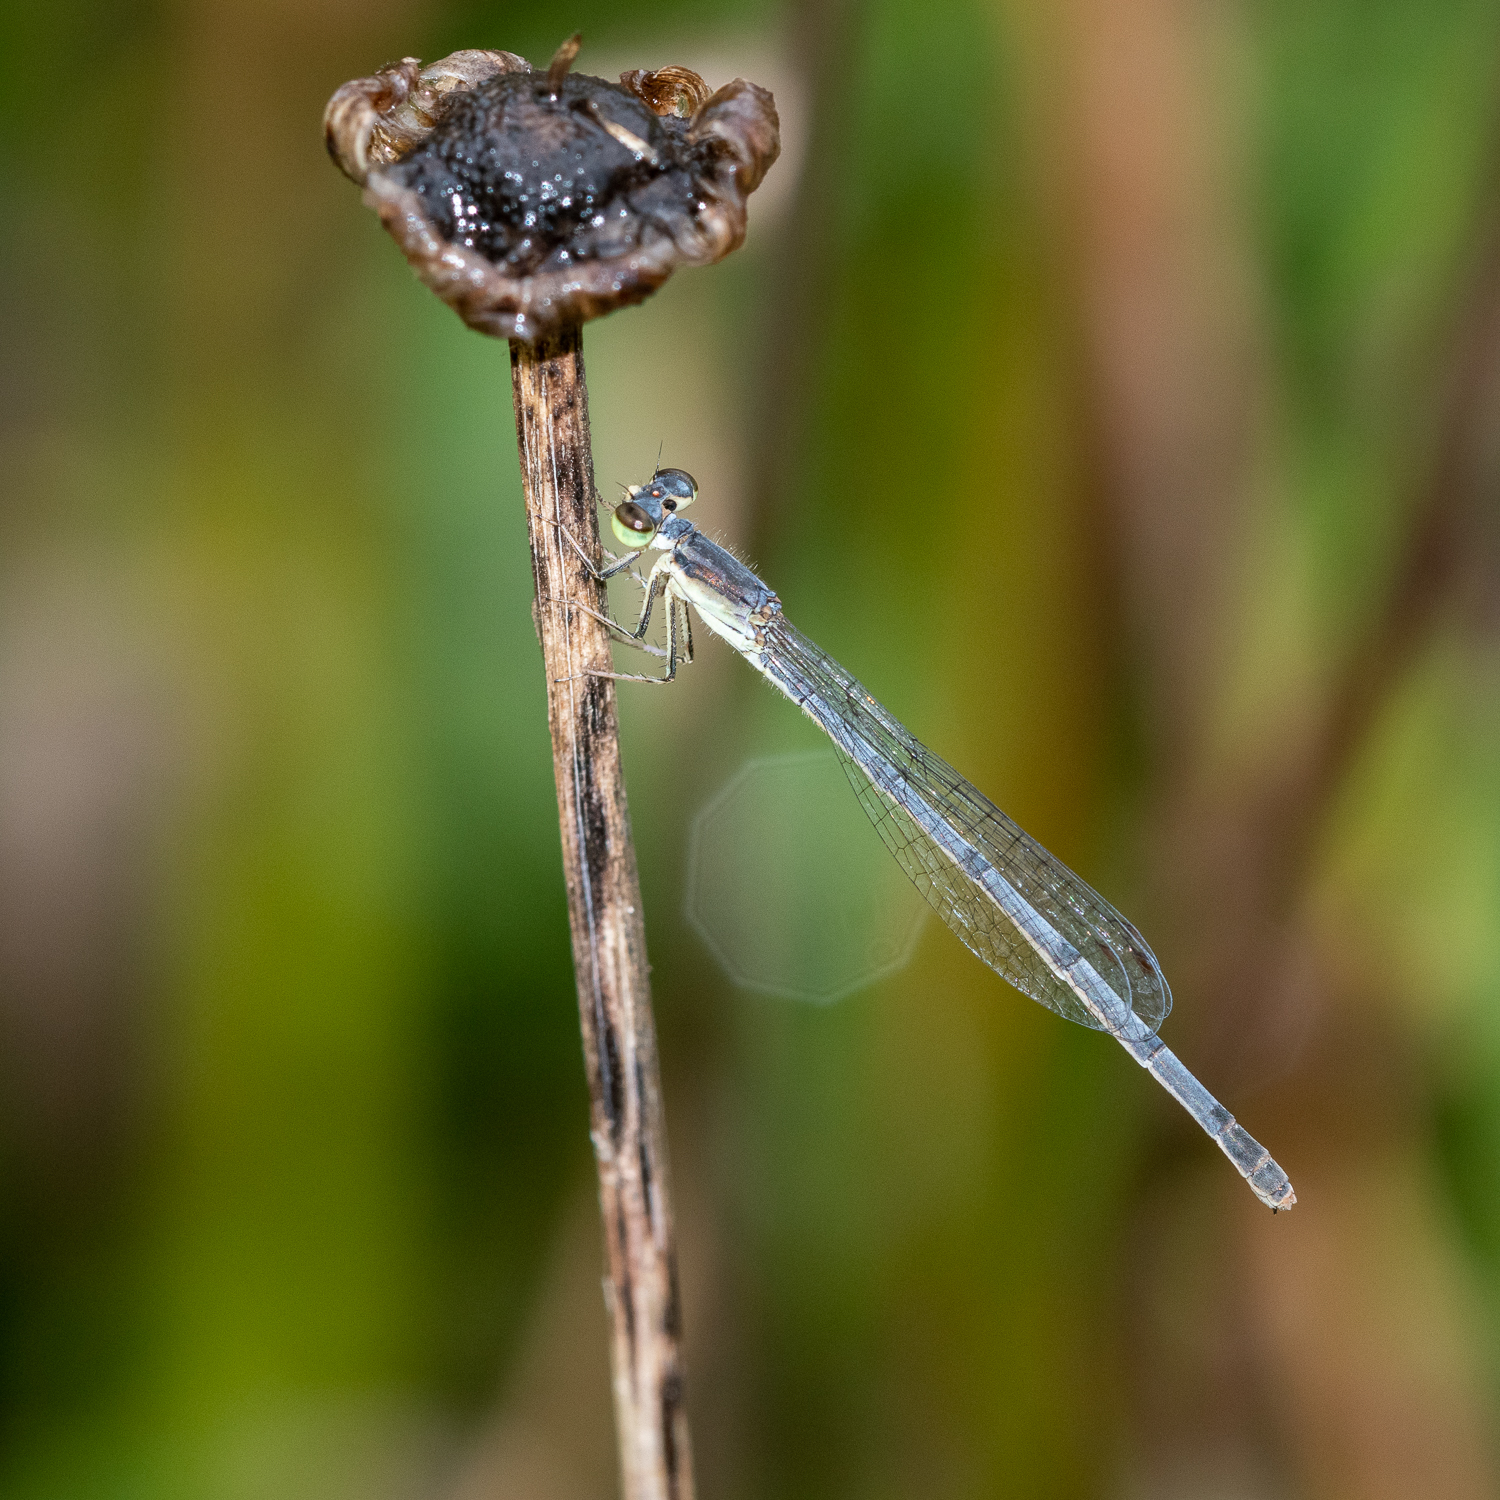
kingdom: Animalia
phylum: Arthropoda
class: Insecta
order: Odonata
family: Coenagrionidae
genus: Ischnura
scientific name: Ischnura posita
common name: Fragile forktail
